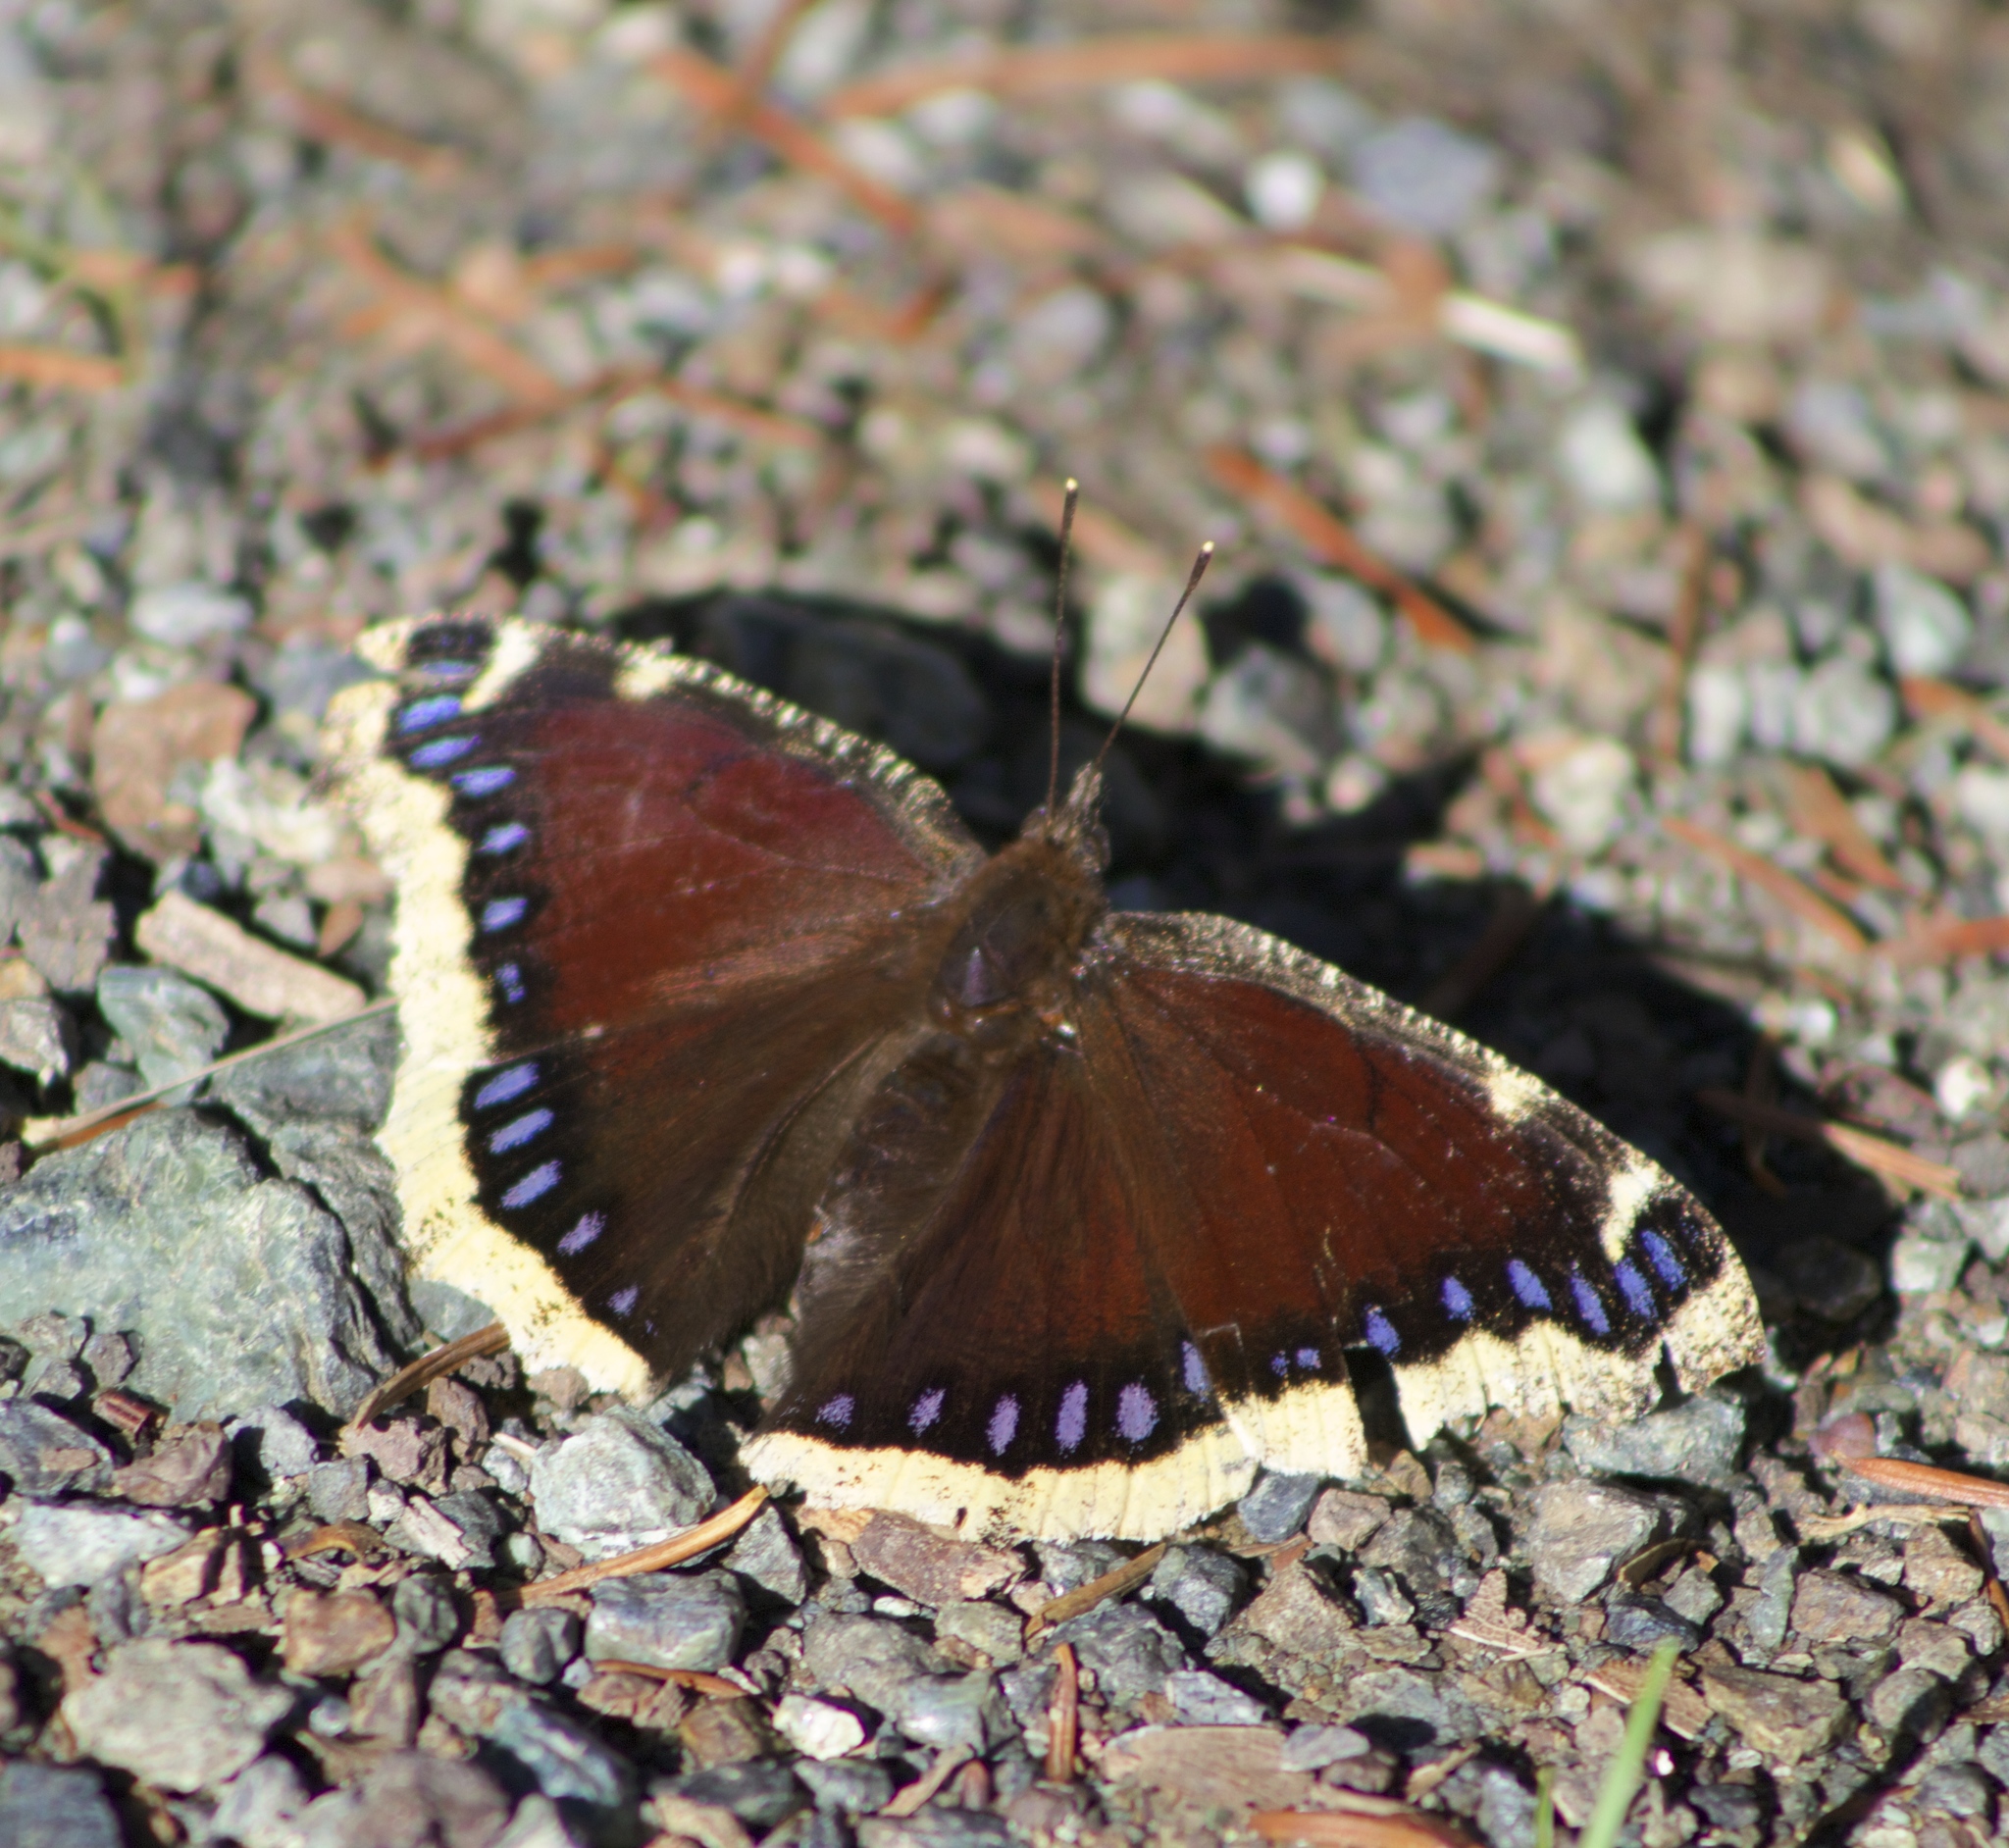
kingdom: Animalia
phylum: Arthropoda
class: Insecta
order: Lepidoptera
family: Nymphalidae
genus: Nymphalis
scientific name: Nymphalis antiopa
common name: Camberwell beauty
